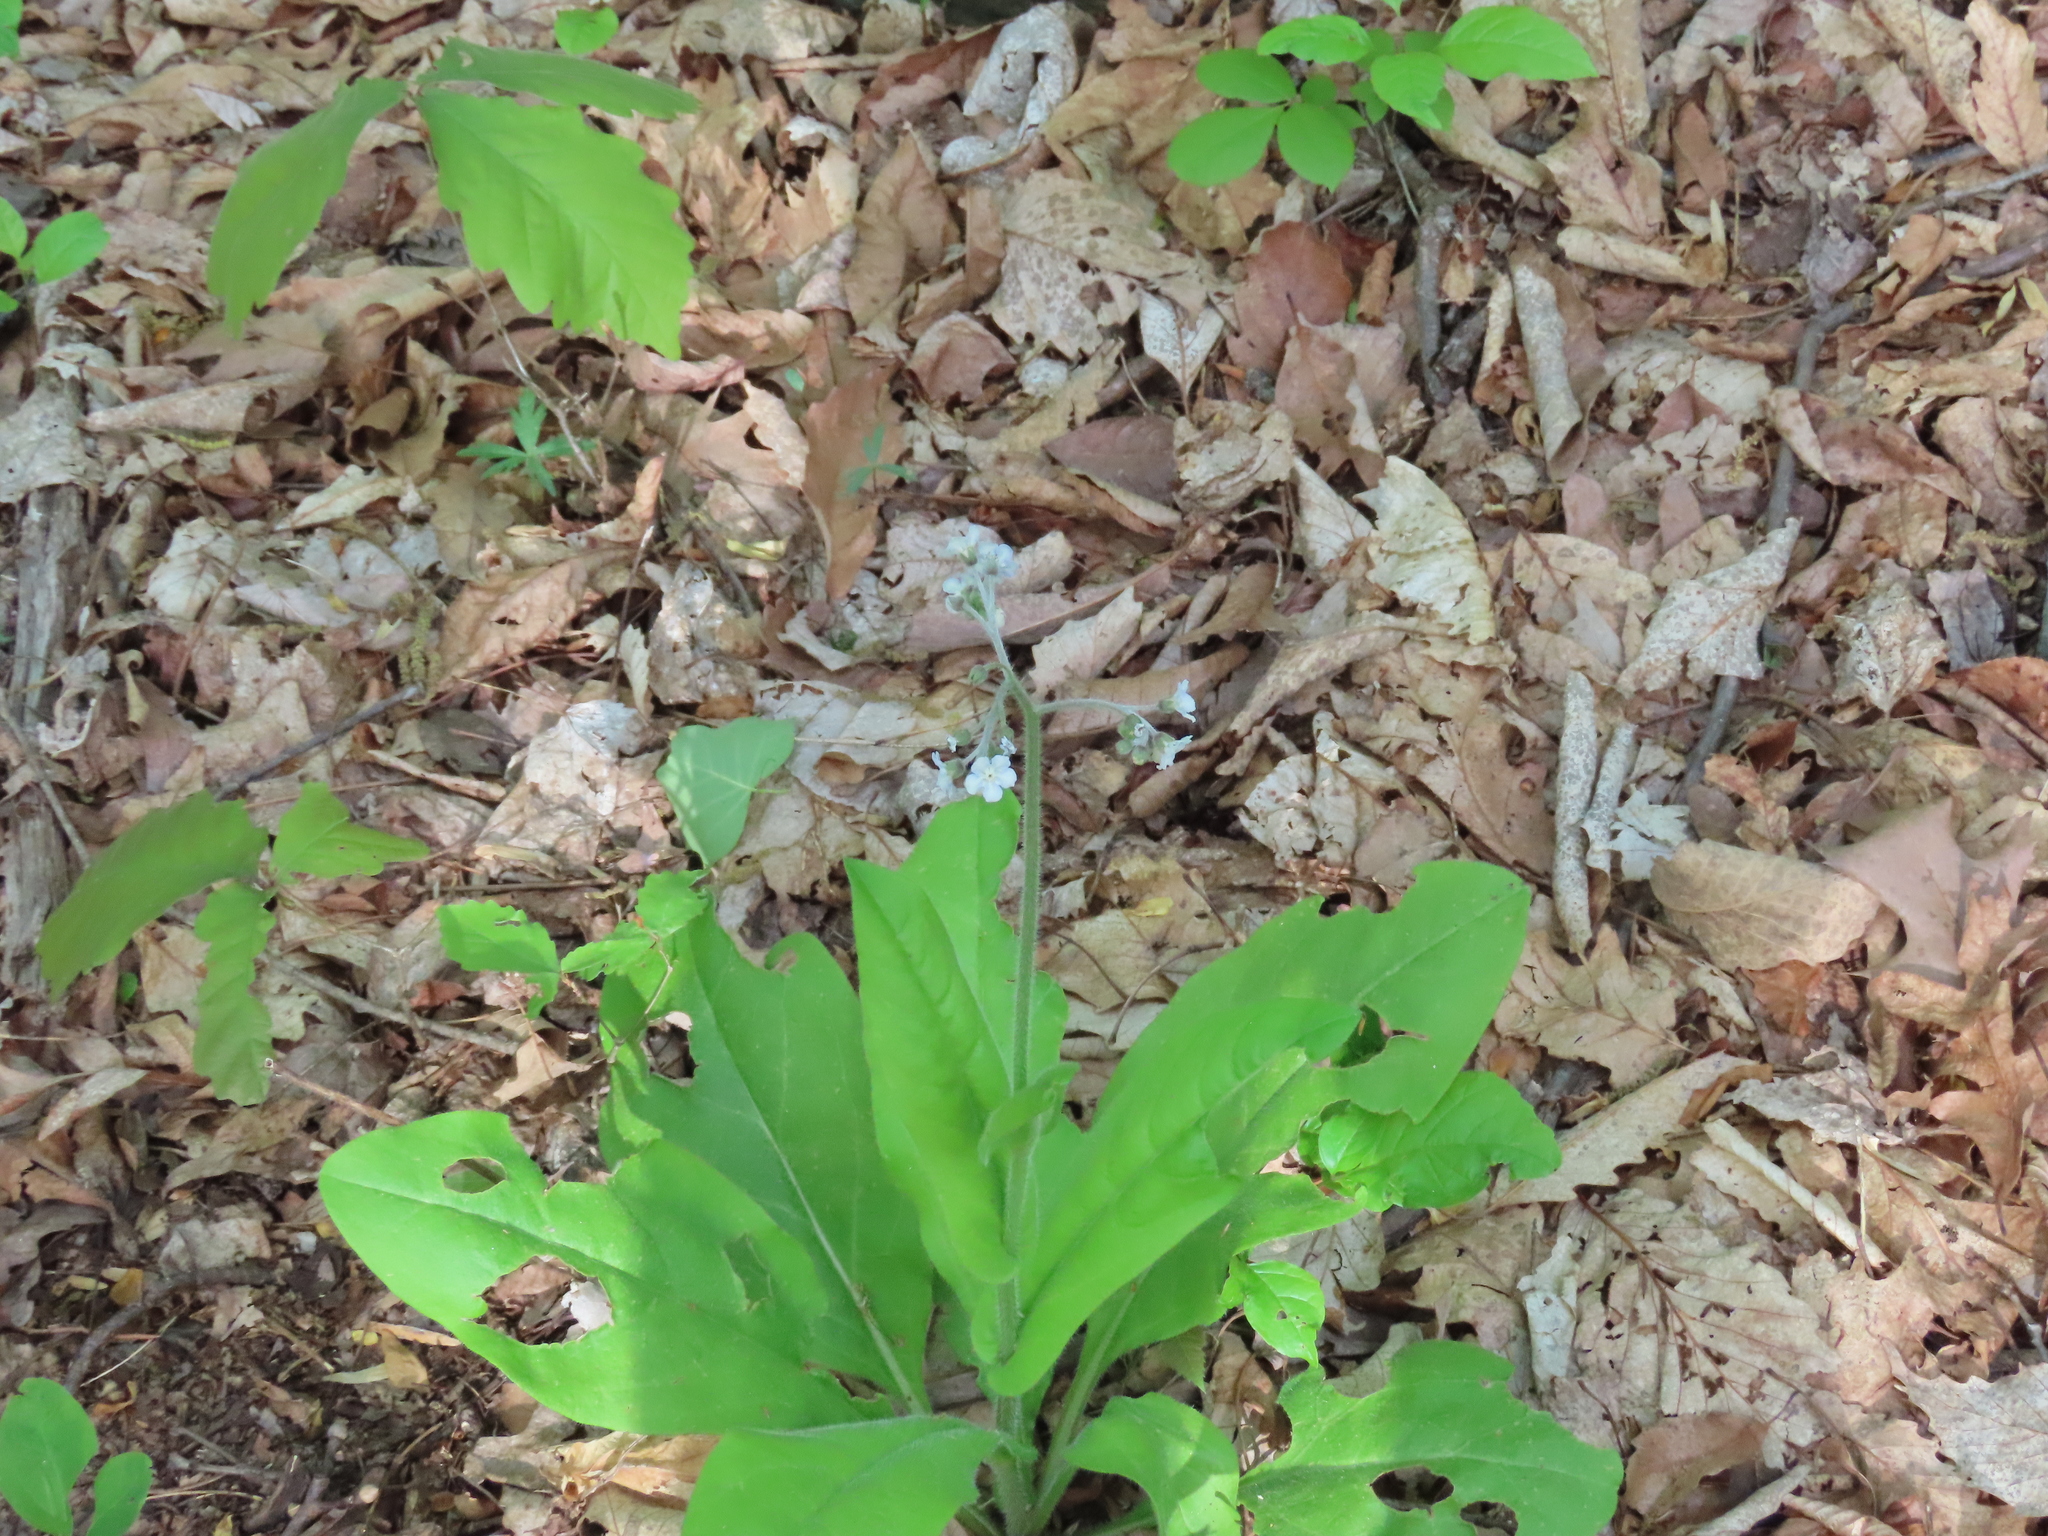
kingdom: Plantae
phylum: Tracheophyta
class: Magnoliopsida
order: Boraginales
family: Boraginaceae
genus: Andersonglossum
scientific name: Andersonglossum virginianum
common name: Wild comfrey
